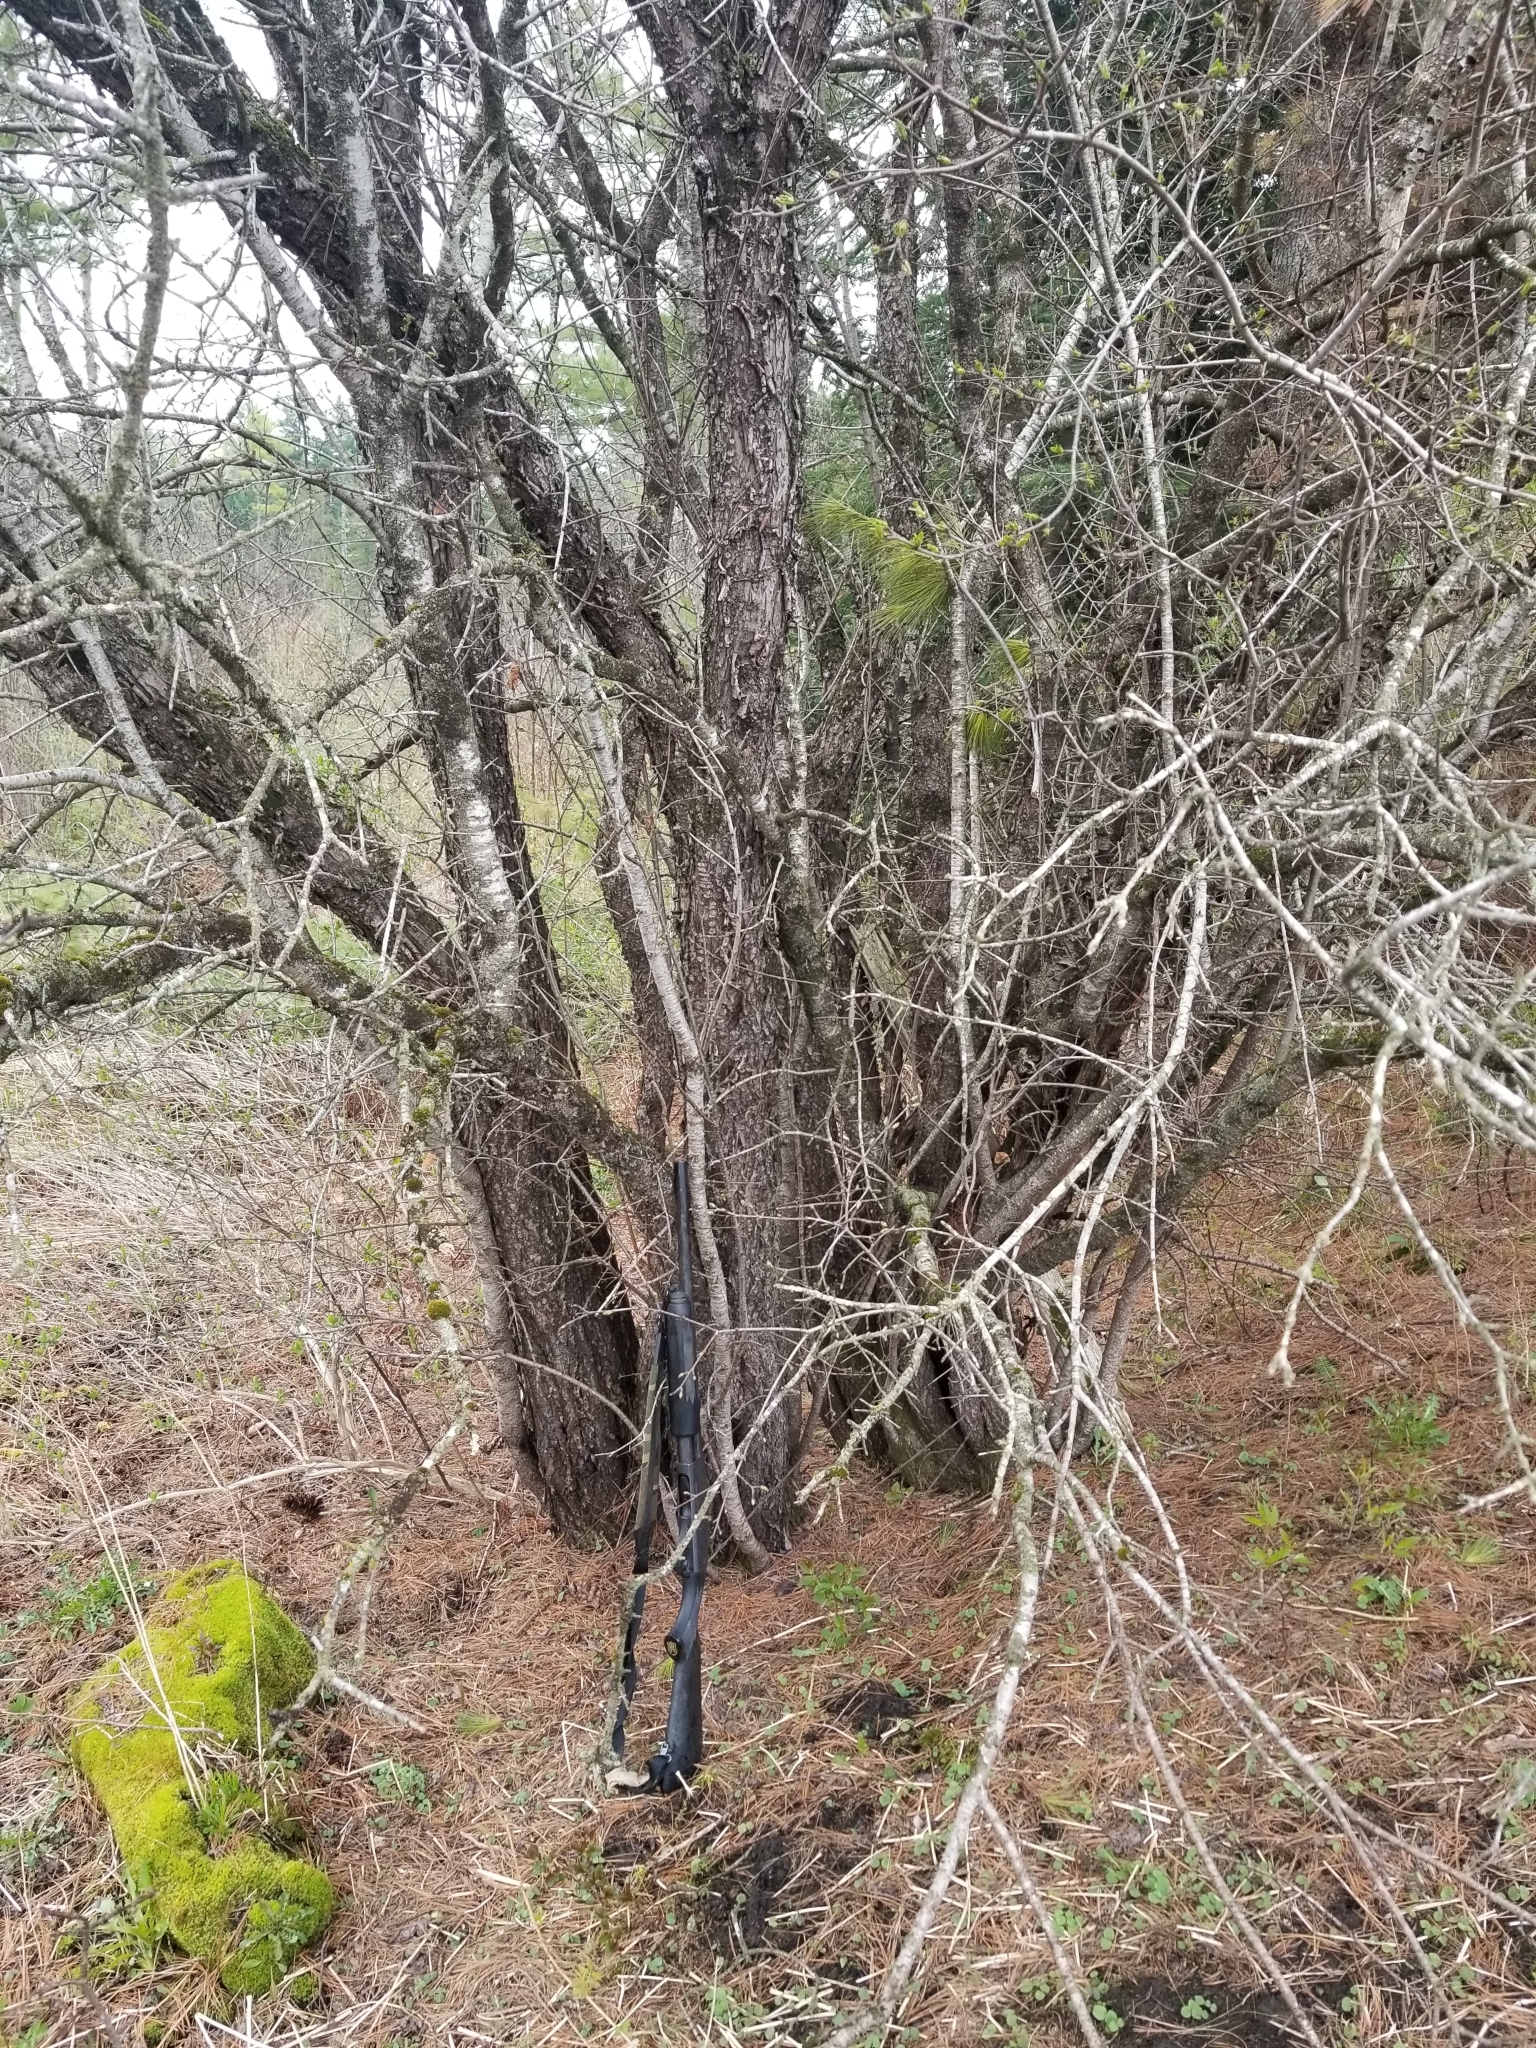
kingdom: Plantae
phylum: Tracheophyta
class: Magnoliopsida
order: Rosales
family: Rhamnaceae
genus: Rhamnus
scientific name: Rhamnus cathartica
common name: Common buckthorn
